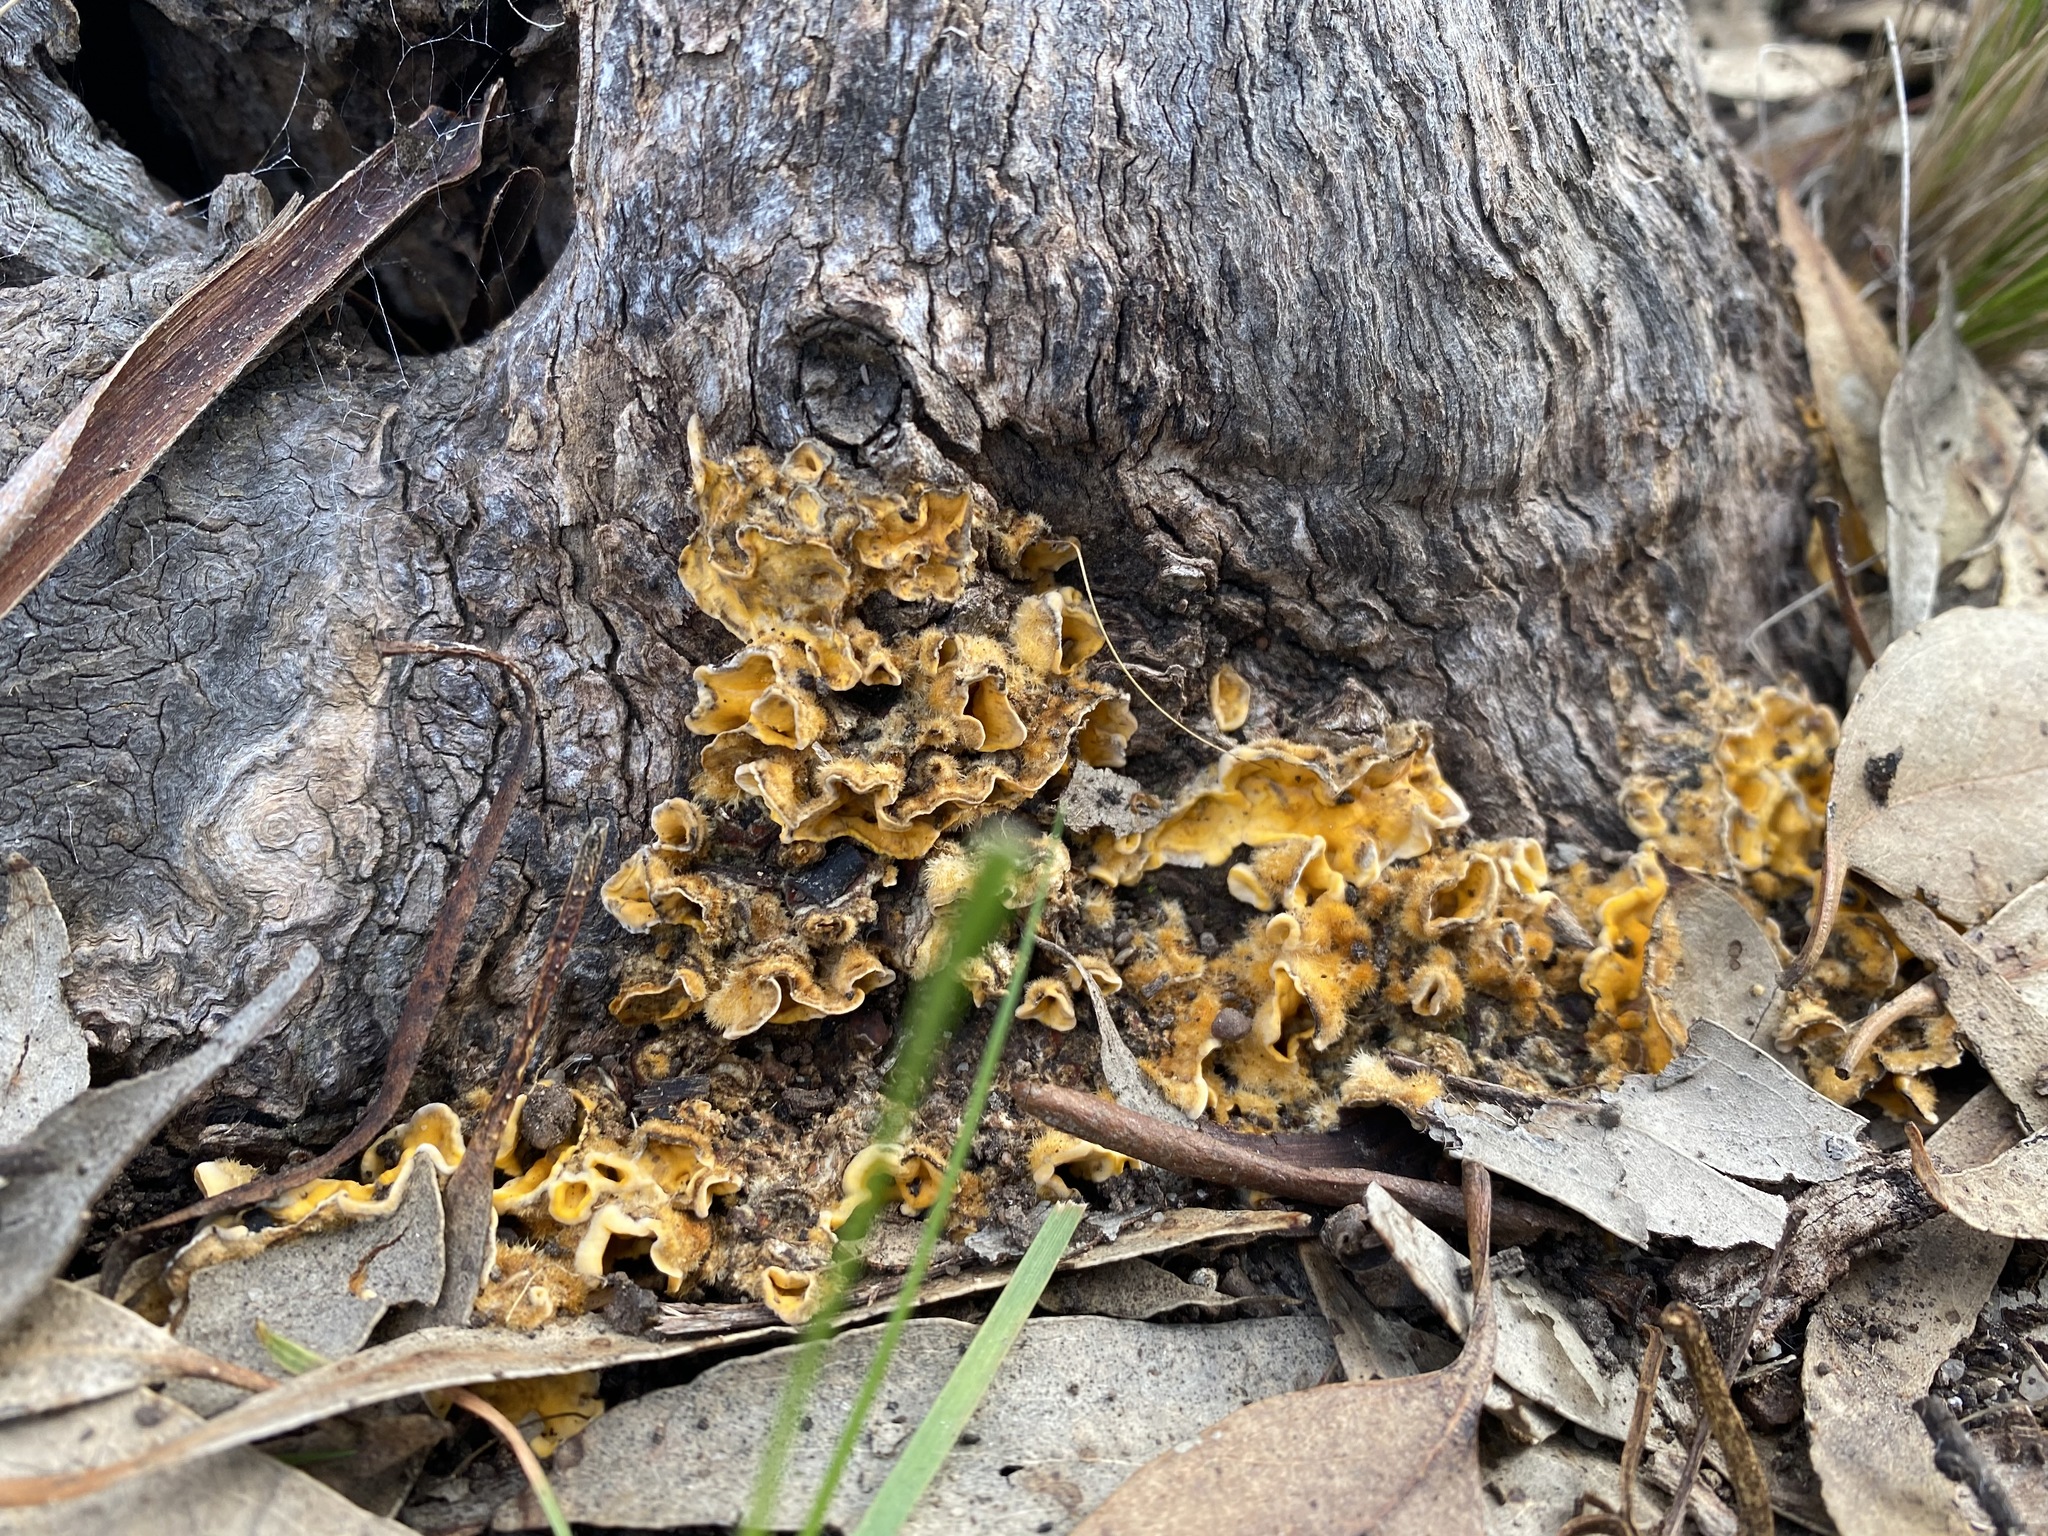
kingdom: Fungi
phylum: Basidiomycota
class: Agaricomycetes
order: Russulales
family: Stereaceae
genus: Stereum
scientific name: Stereum hirsutum
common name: Hairy curtain crust
